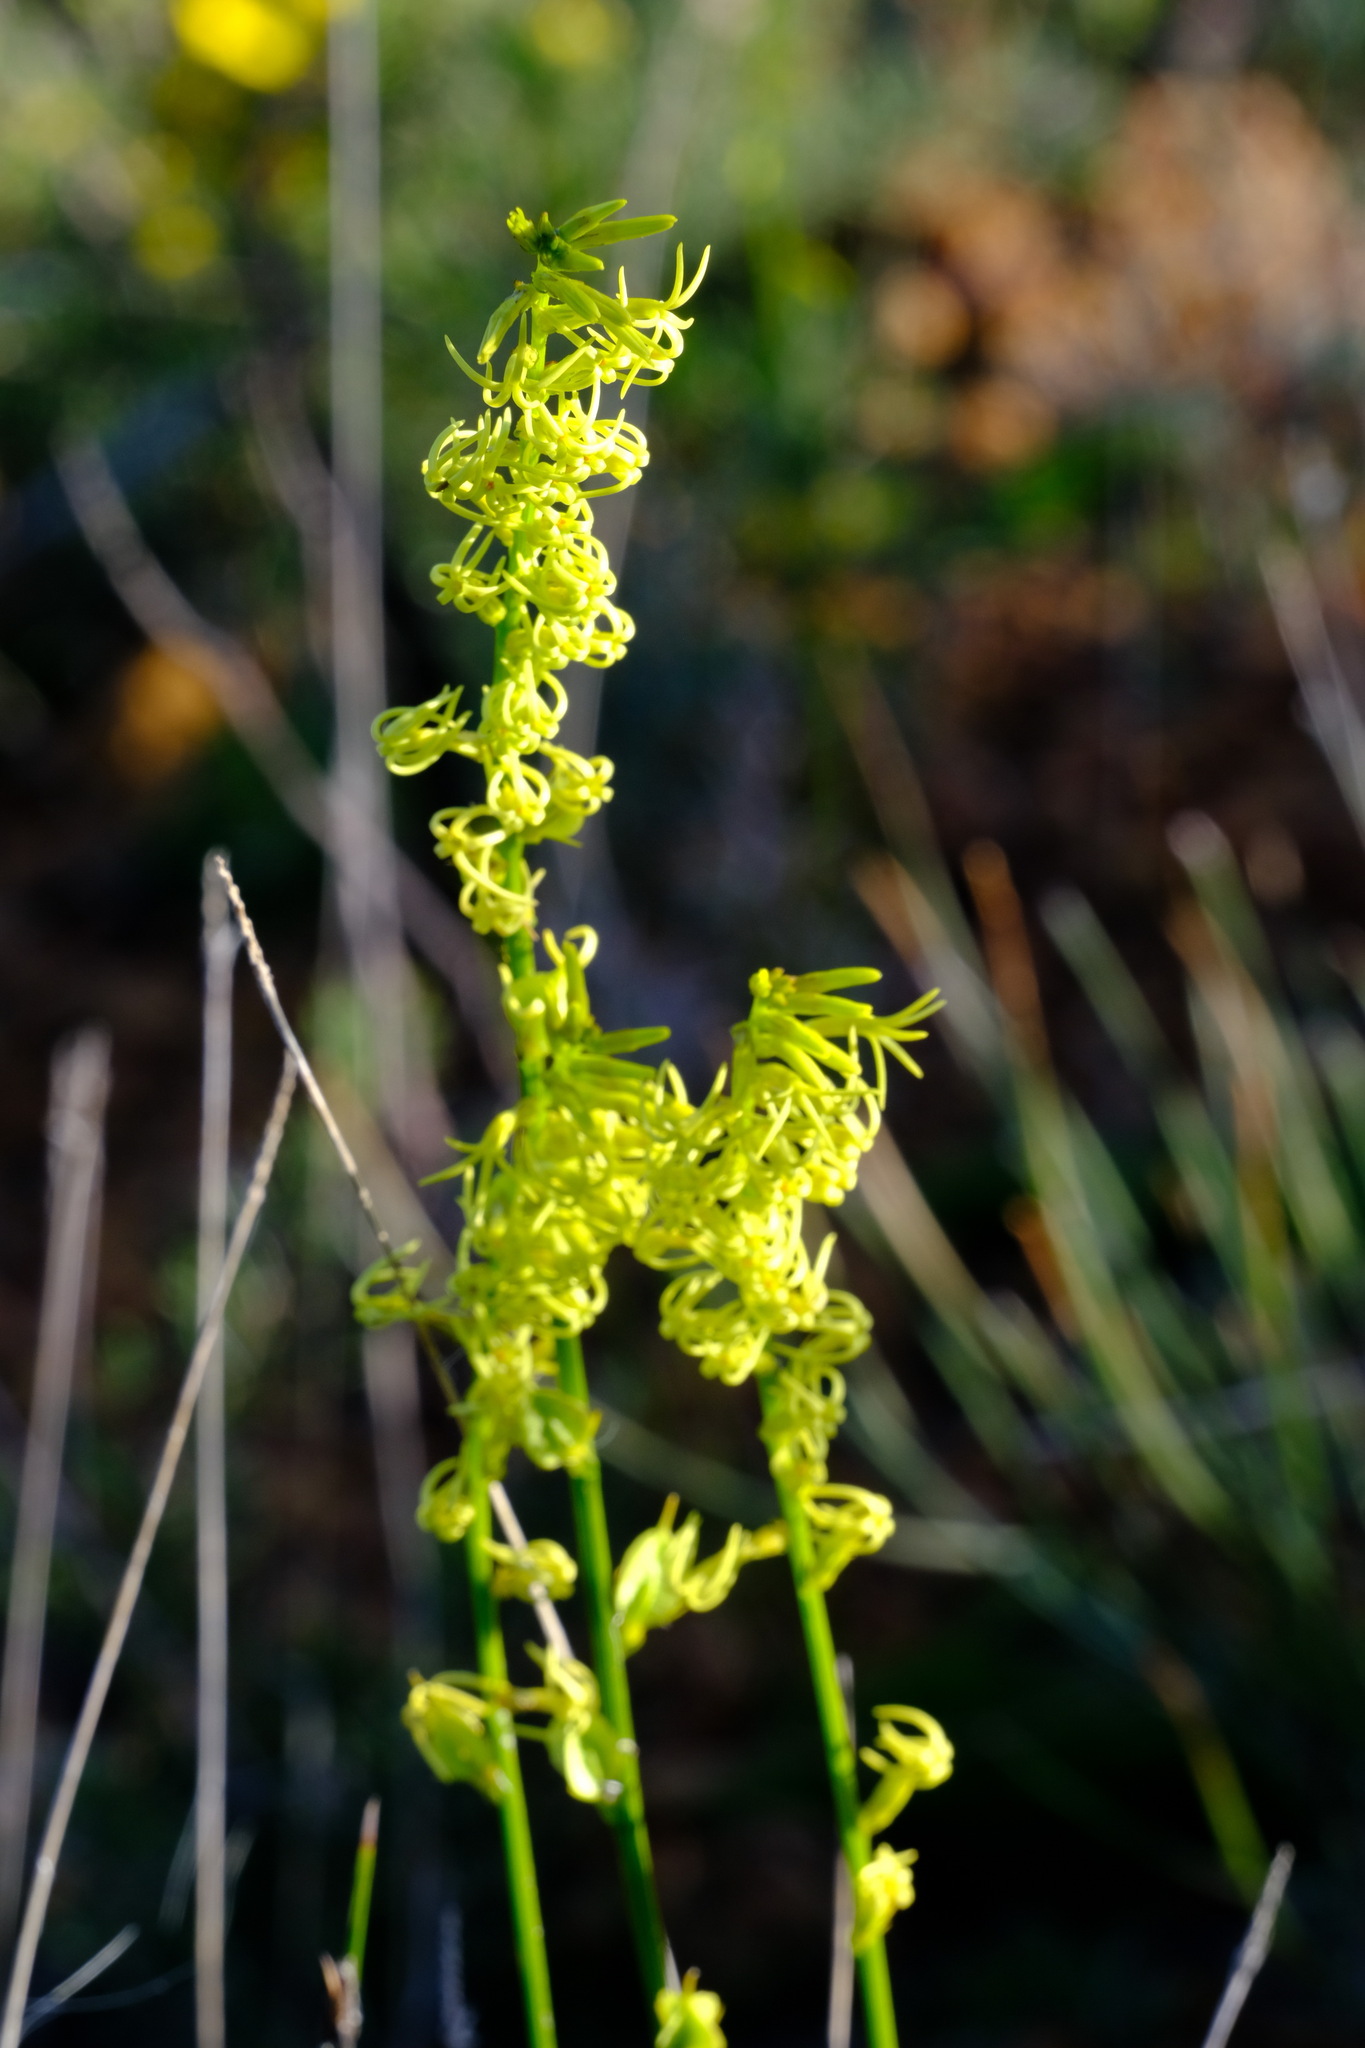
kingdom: Plantae
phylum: Tracheophyta
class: Magnoliopsida
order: Celastrales
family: Celastraceae
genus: Tripterococcus
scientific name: Tripterococcus brunonis
